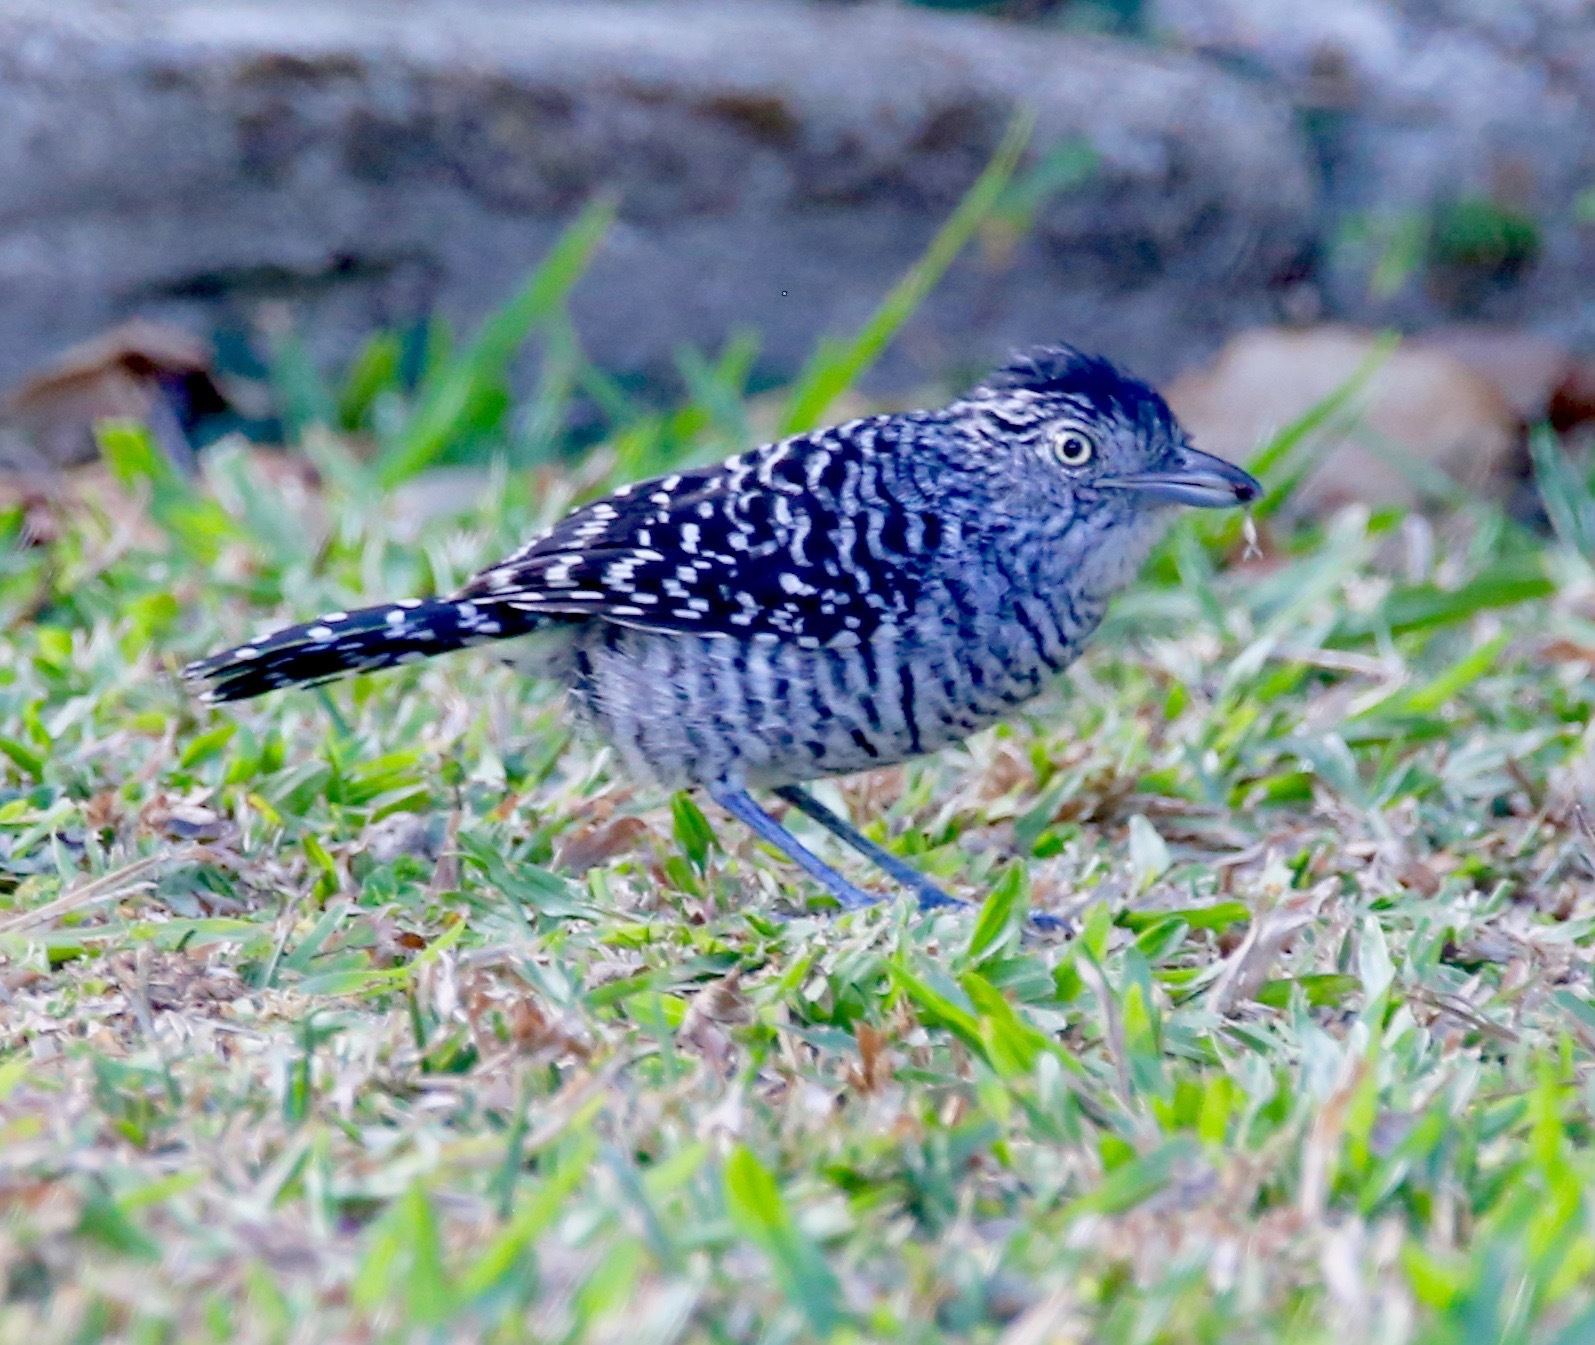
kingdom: Animalia
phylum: Chordata
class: Aves
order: Passeriformes
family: Thamnophilidae
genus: Thamnophilus
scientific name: Thamnophilus doliatus
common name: Barred antshrike
